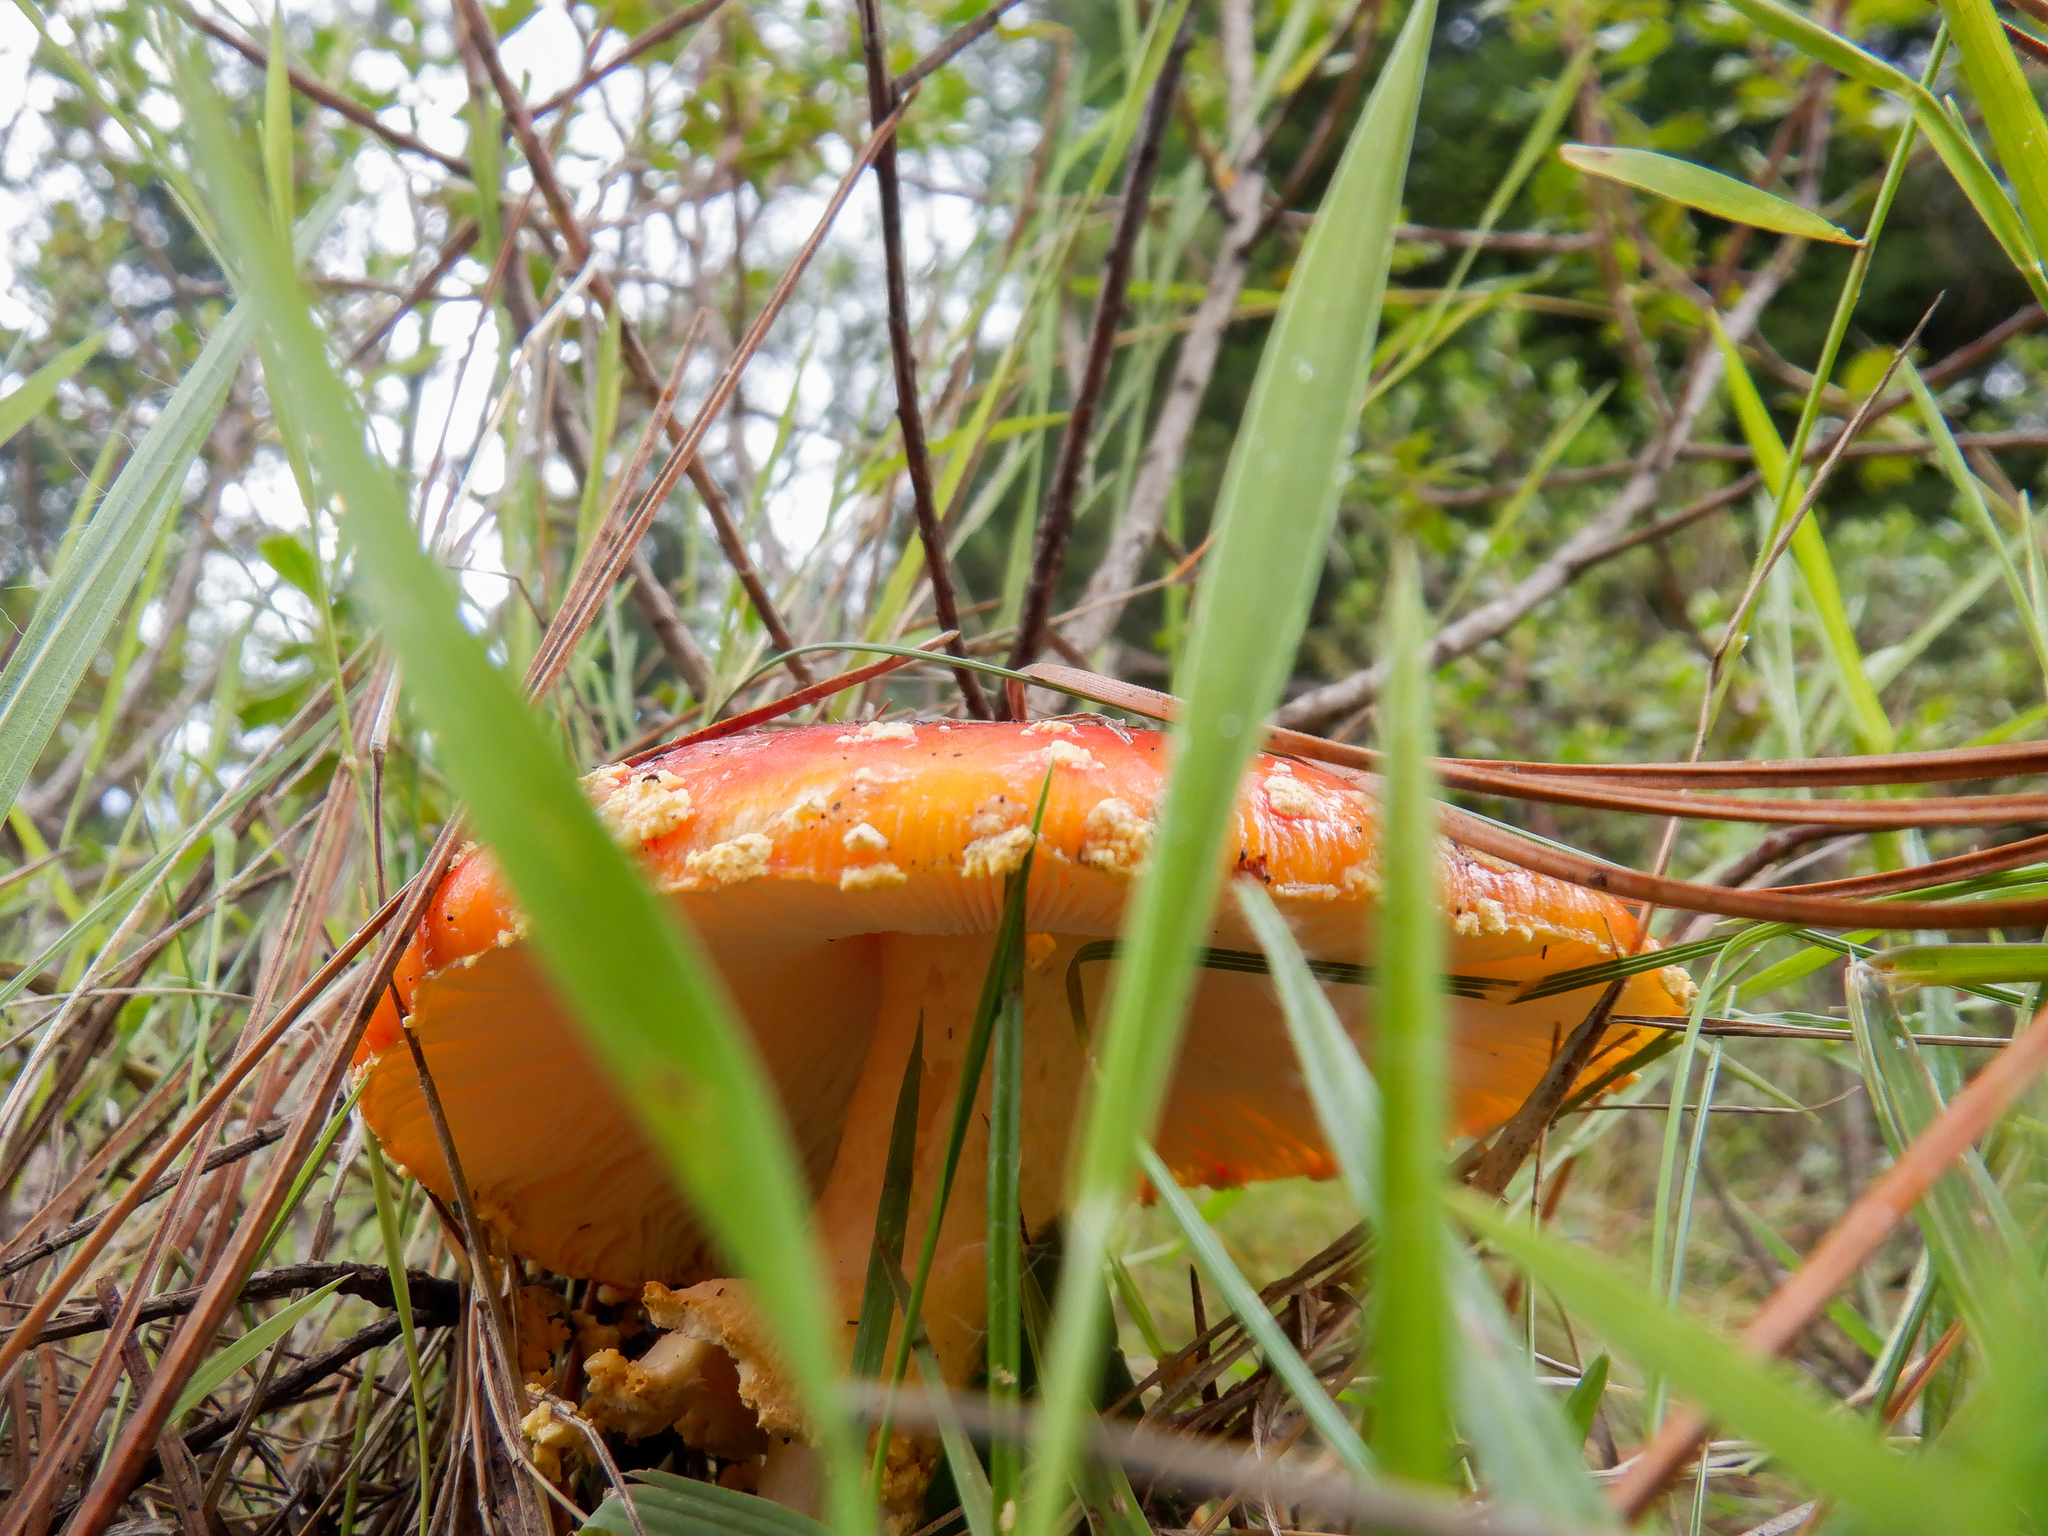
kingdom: Fungi
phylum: Basidiomycota
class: Agaricomycetes
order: Agaricales
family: Amanitaceae
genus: Amanita
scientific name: Amanita muscaria
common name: Fly agaric
